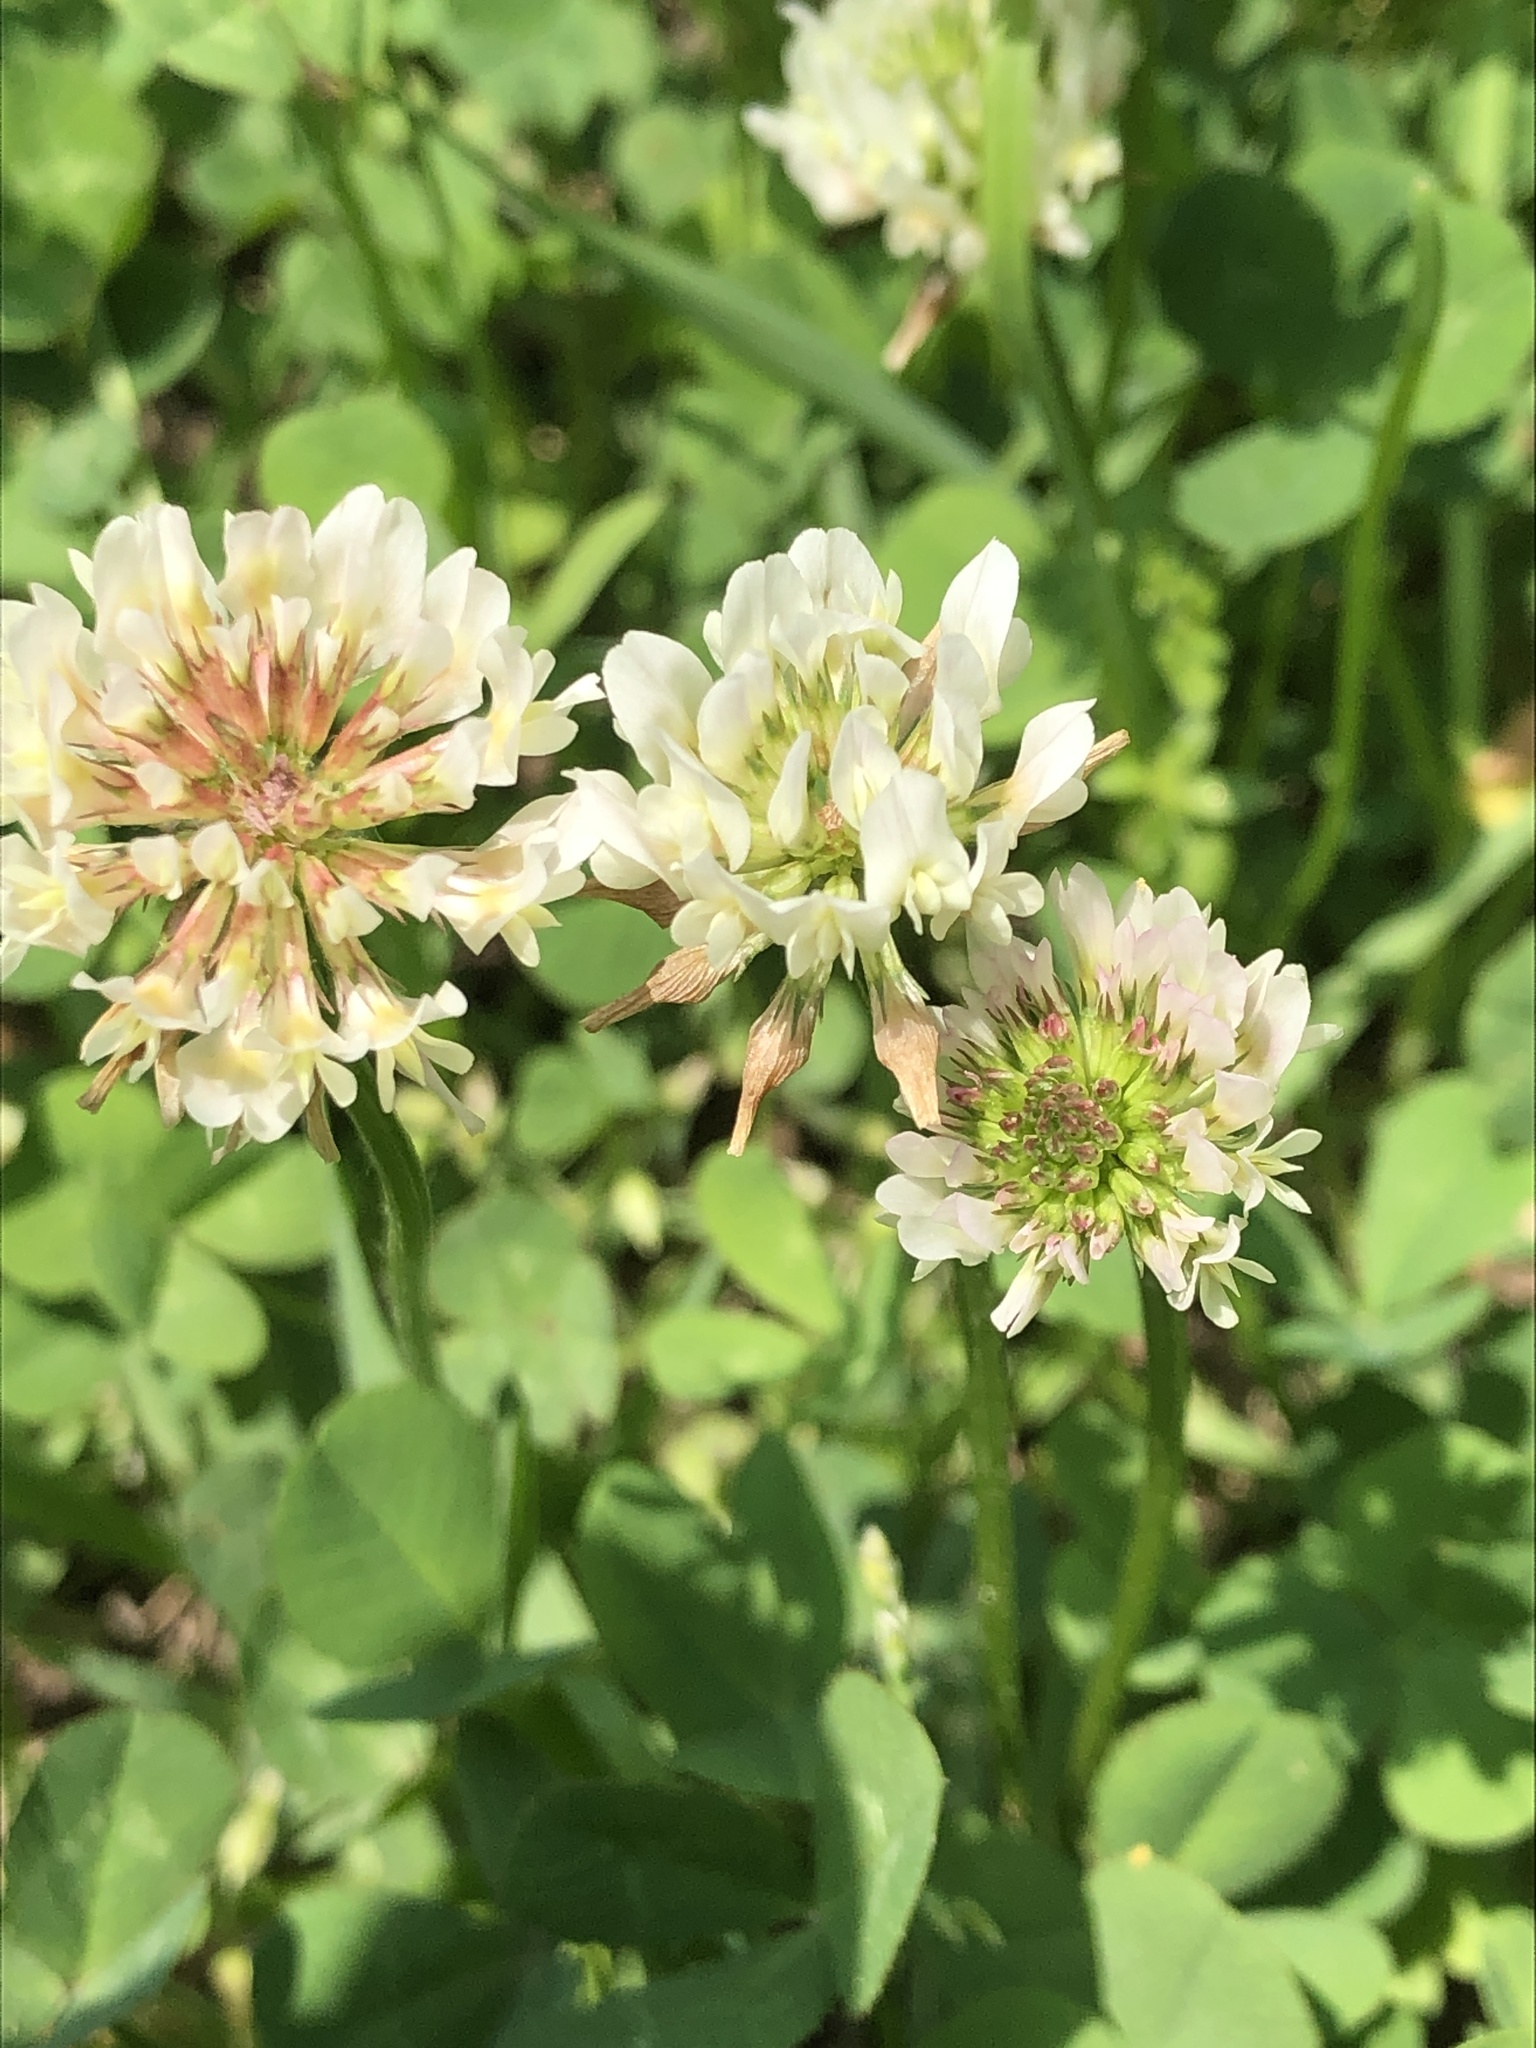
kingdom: Plantae
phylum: Tracheophyta
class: Magnoliopsida
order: Fabales
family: Fabaceae
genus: Trifolium
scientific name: Trifolium repens
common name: White clover
